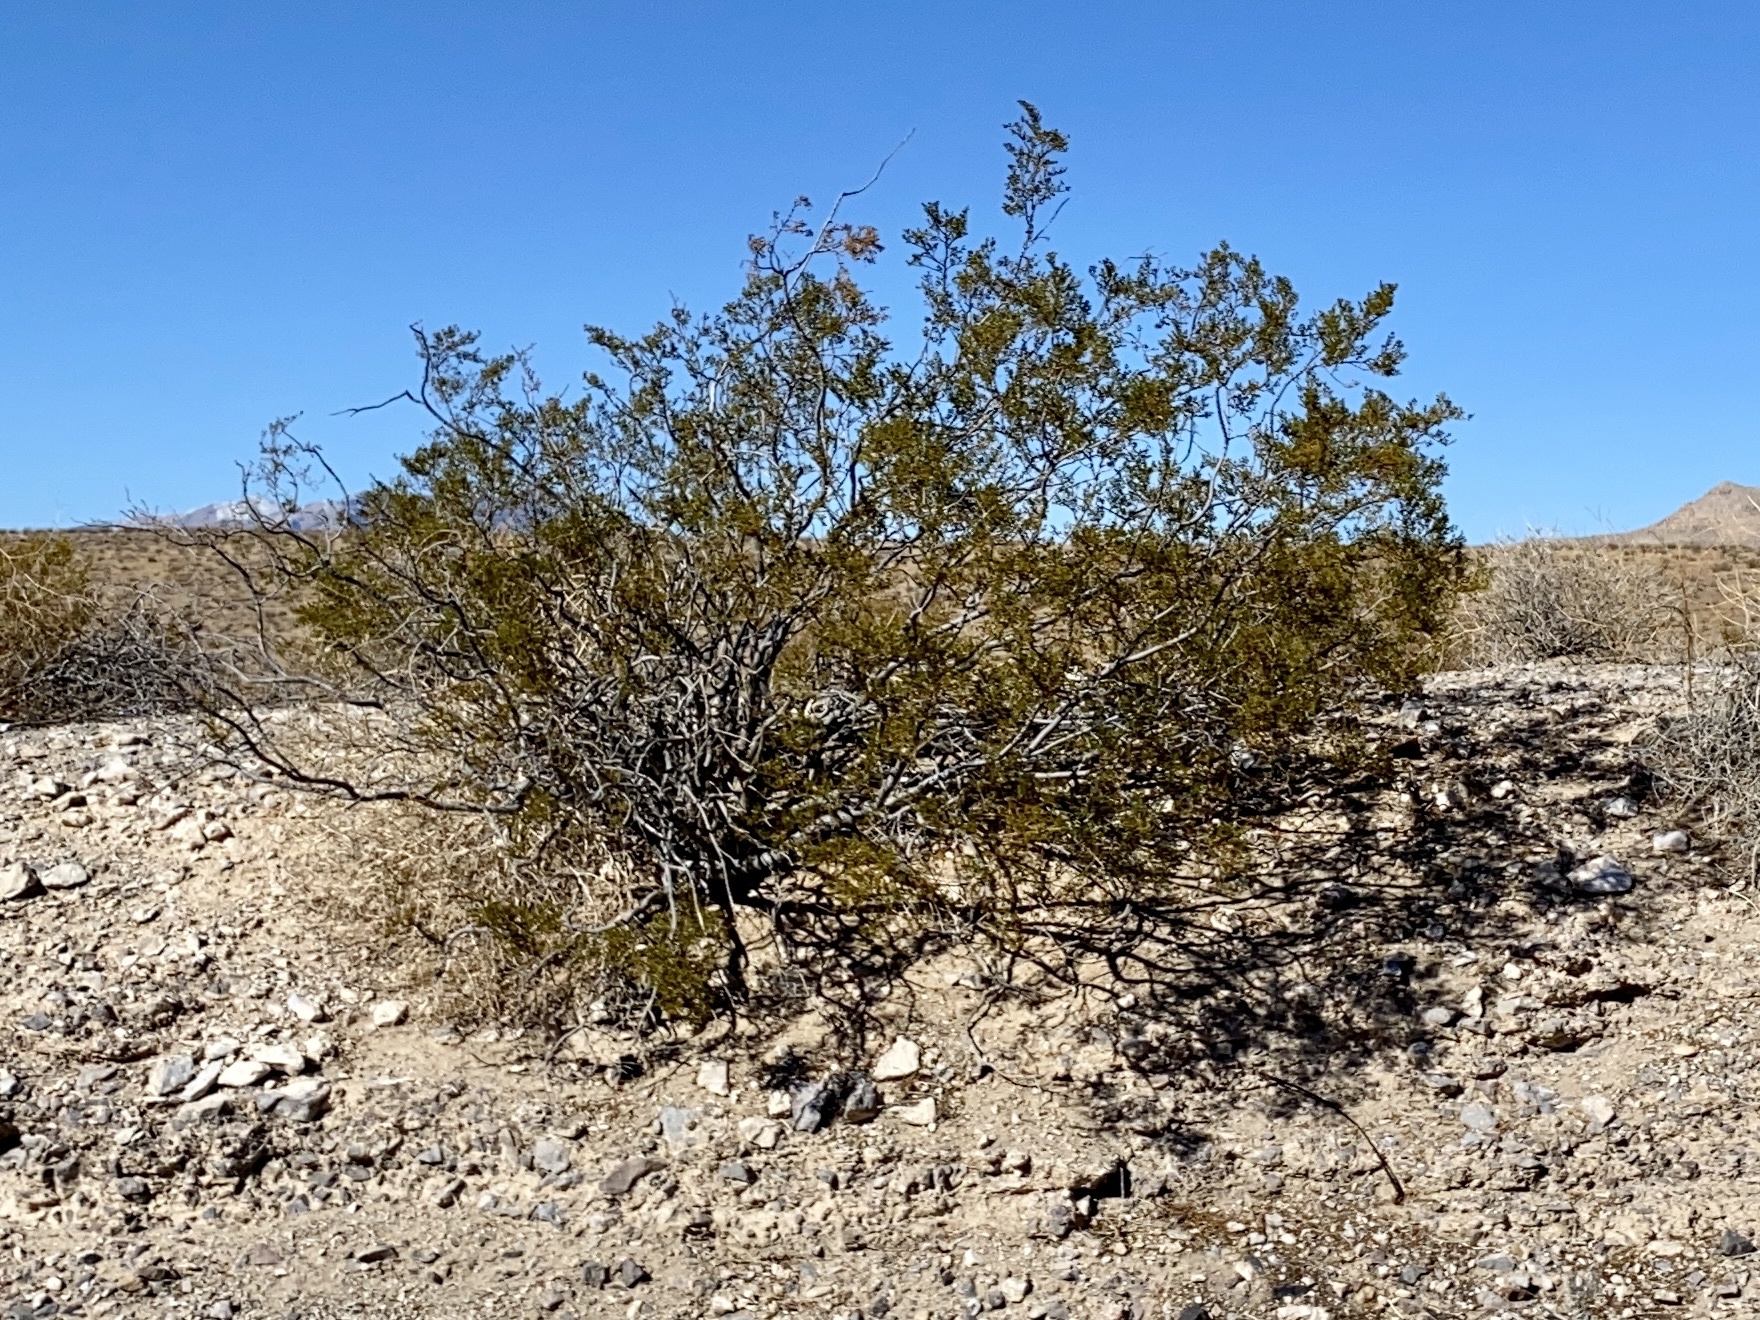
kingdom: Plantae
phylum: Tracheophyta
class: Magnoliopsida
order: Zygophyllales
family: Zygophyllaceae
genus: Larrea
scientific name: Larrea tridentata
